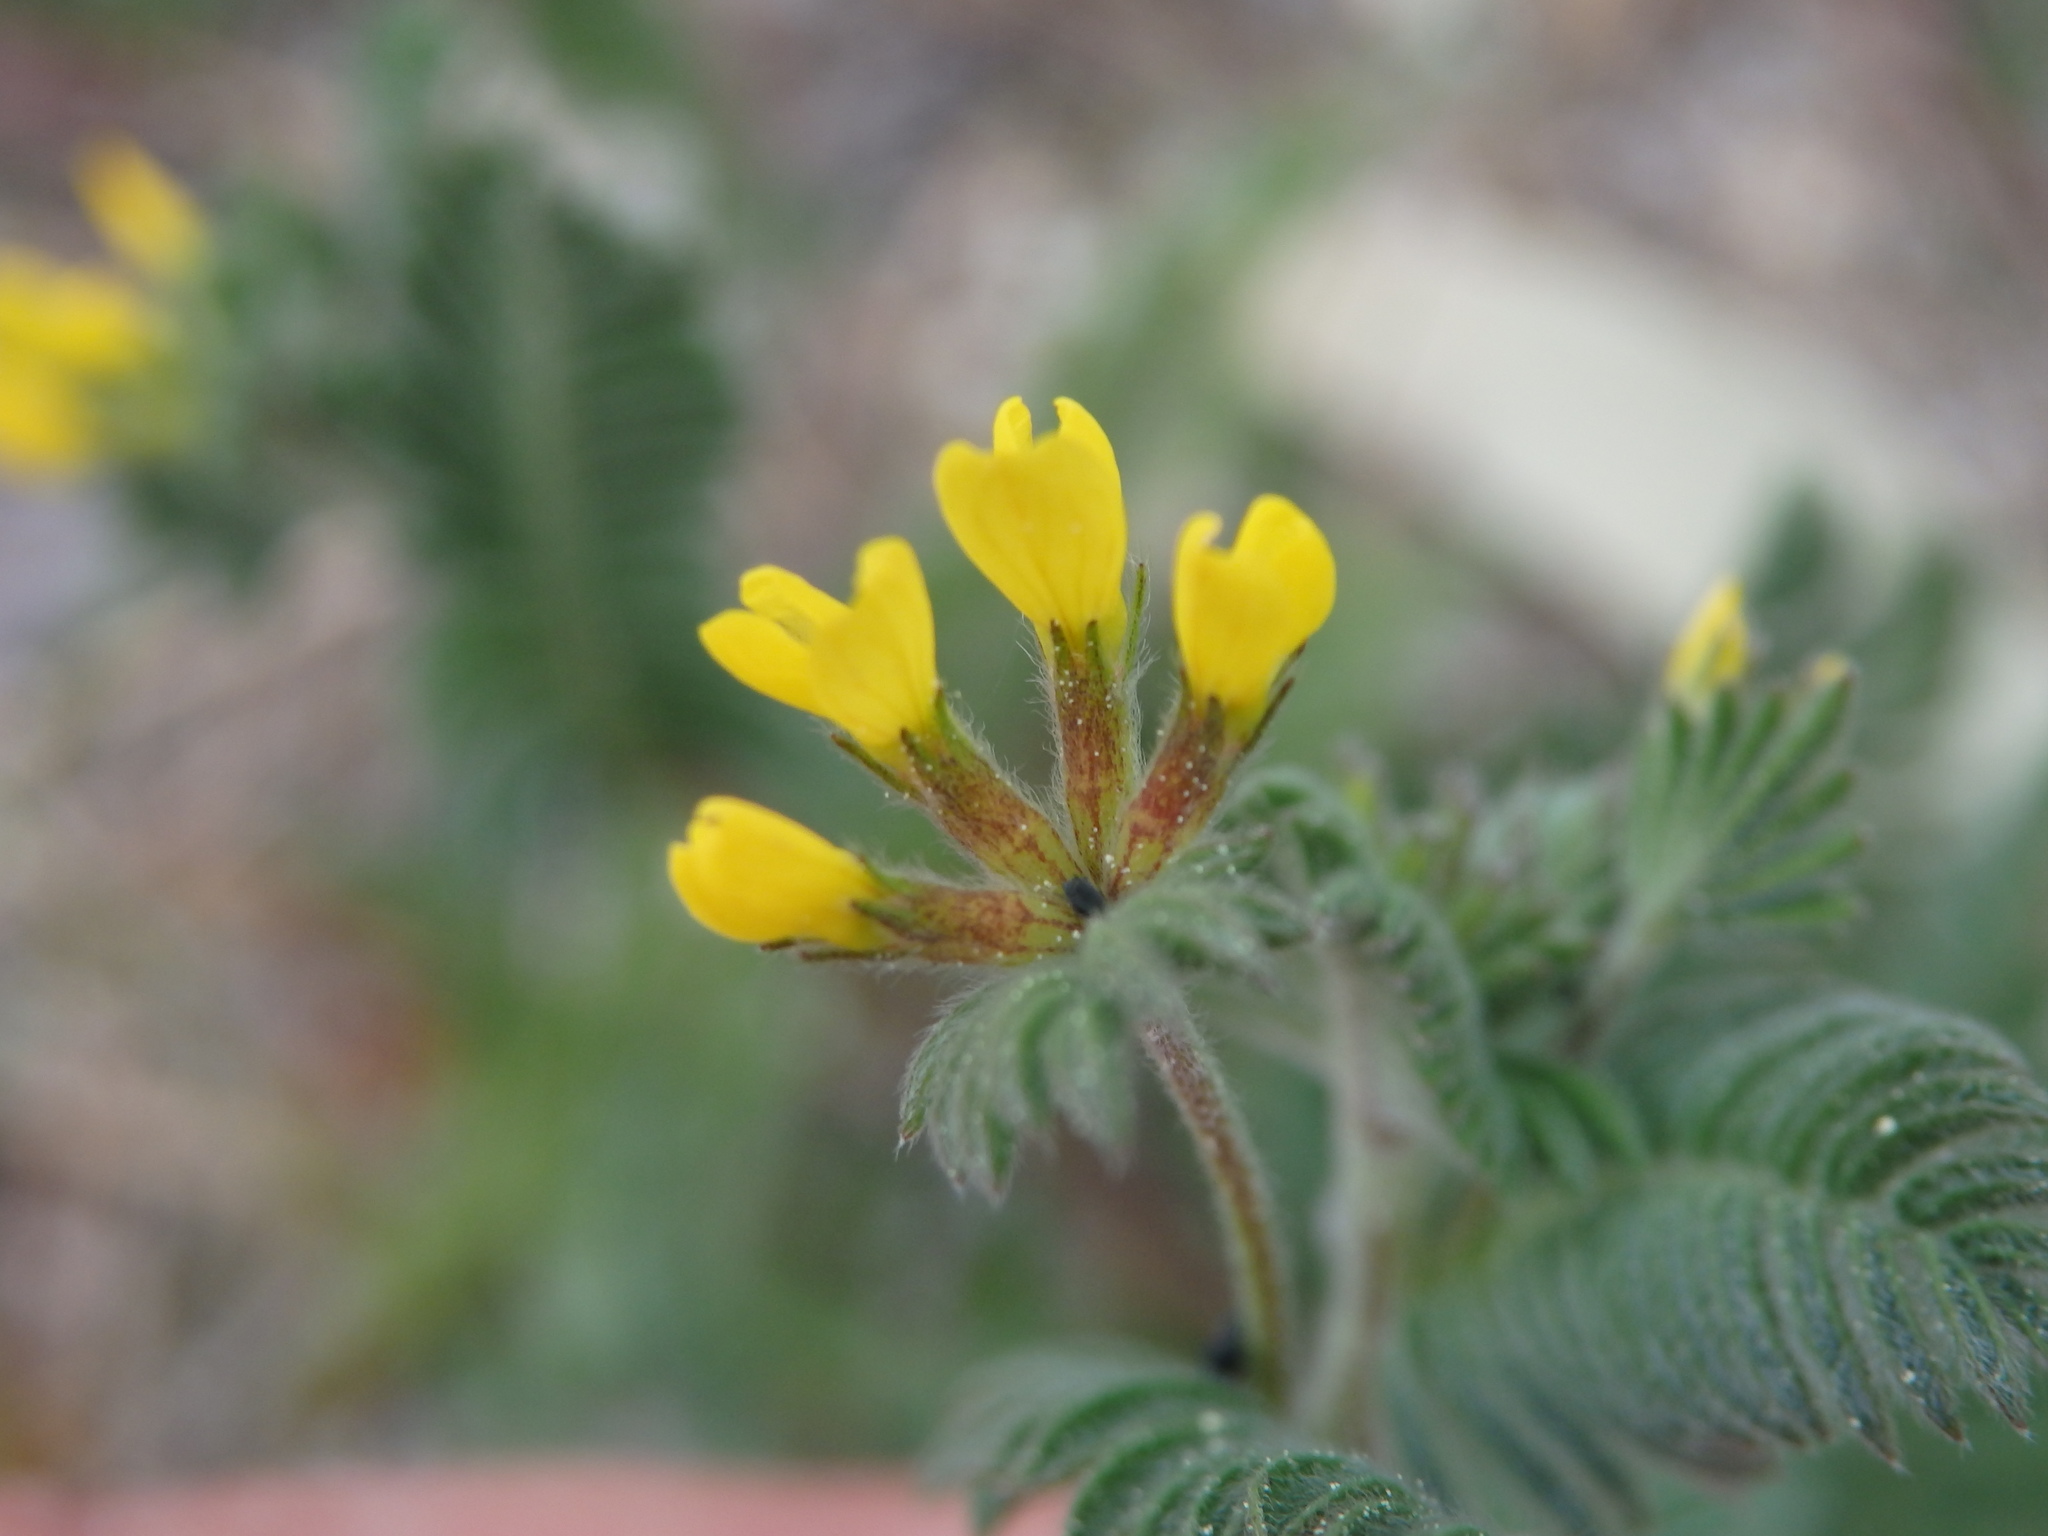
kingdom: Plantae
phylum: Tracheophyta
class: Magnoliopsida
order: Fabales
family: Fabaceae
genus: Ornithopus
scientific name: Ornithopus compressus
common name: Yellow serradella
